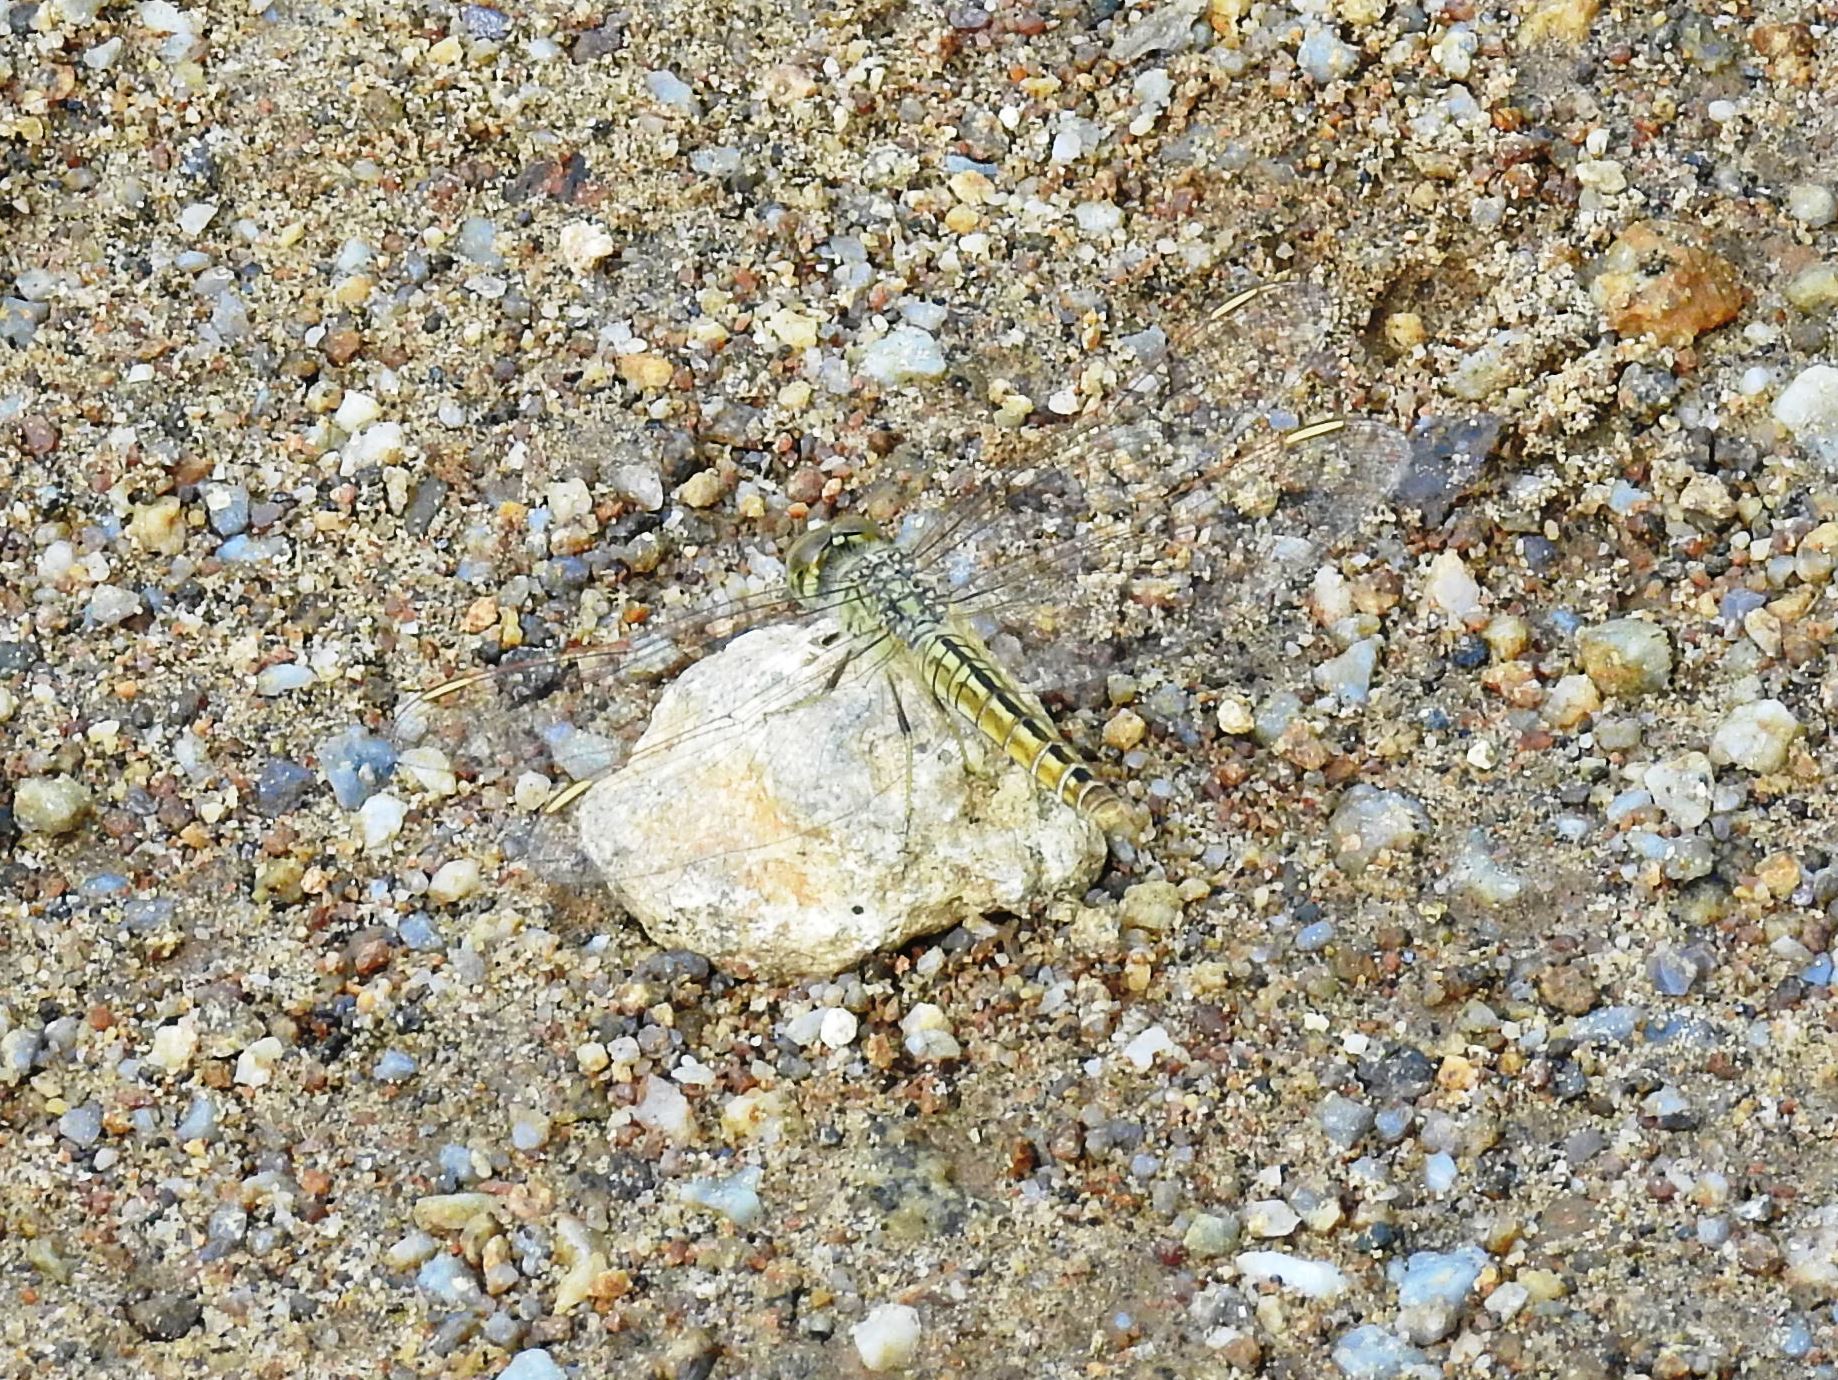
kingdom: Animalia
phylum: Arthropoda
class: Insecta
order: Odonata
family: Libellulidae
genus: Brachythemis
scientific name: Brachythemis contaminata
